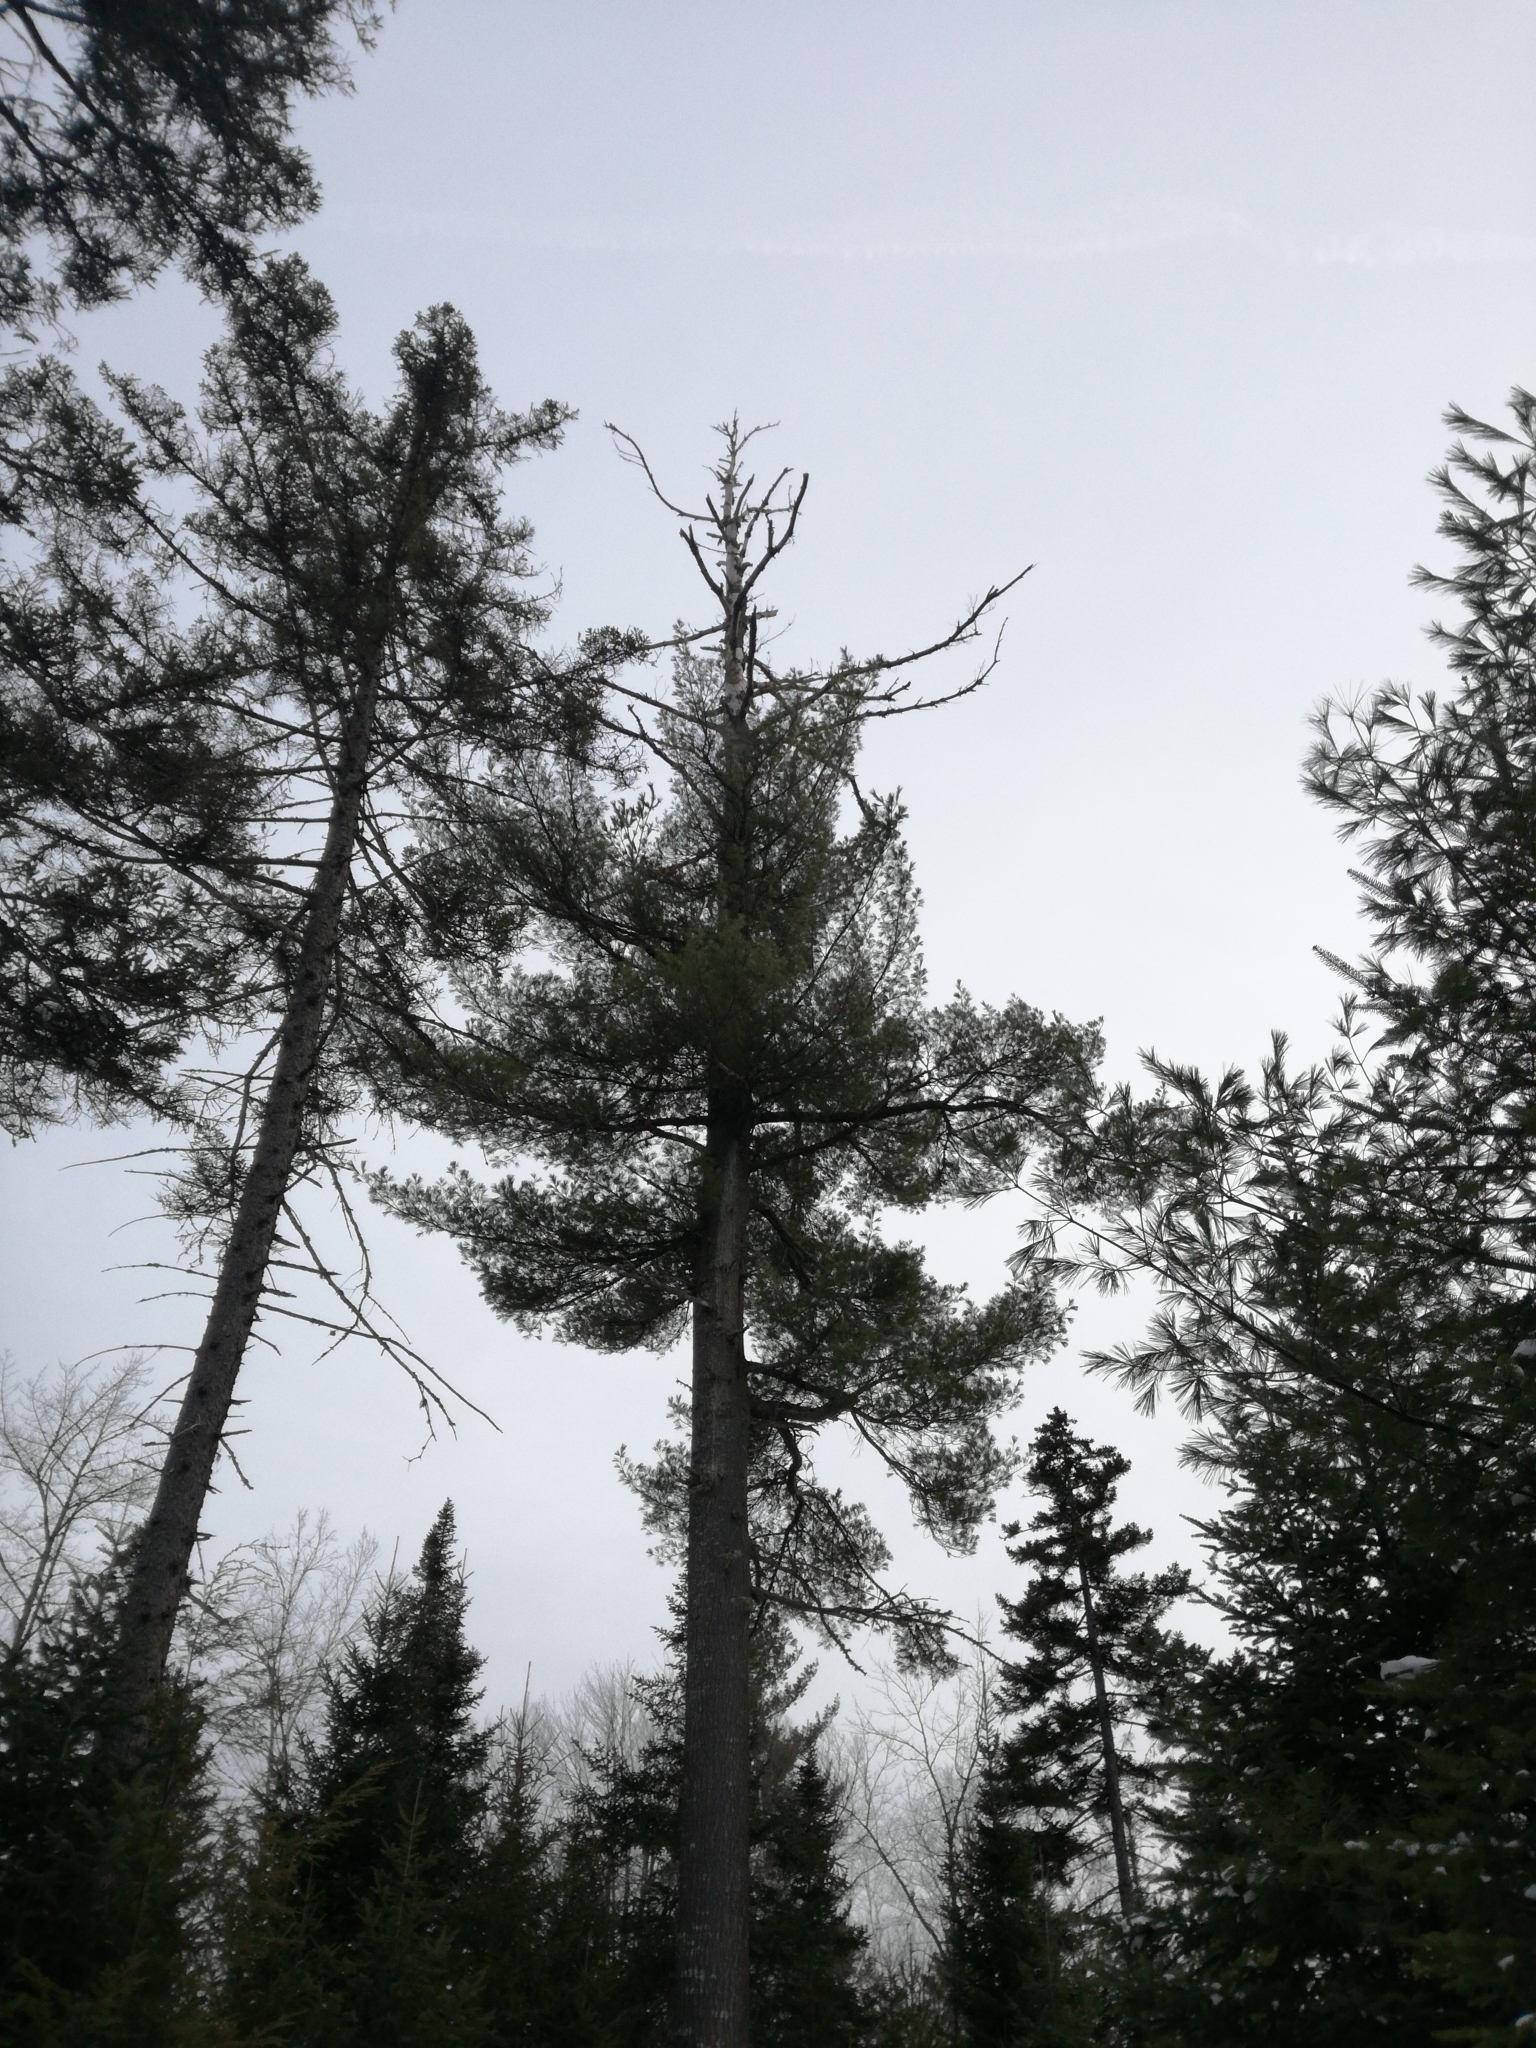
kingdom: Plantae
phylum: Tracheophyta
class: Pinopsida
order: Pinales
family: Pinaceae
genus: Pinus
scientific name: Pinus strobus
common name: Weymouth pine
